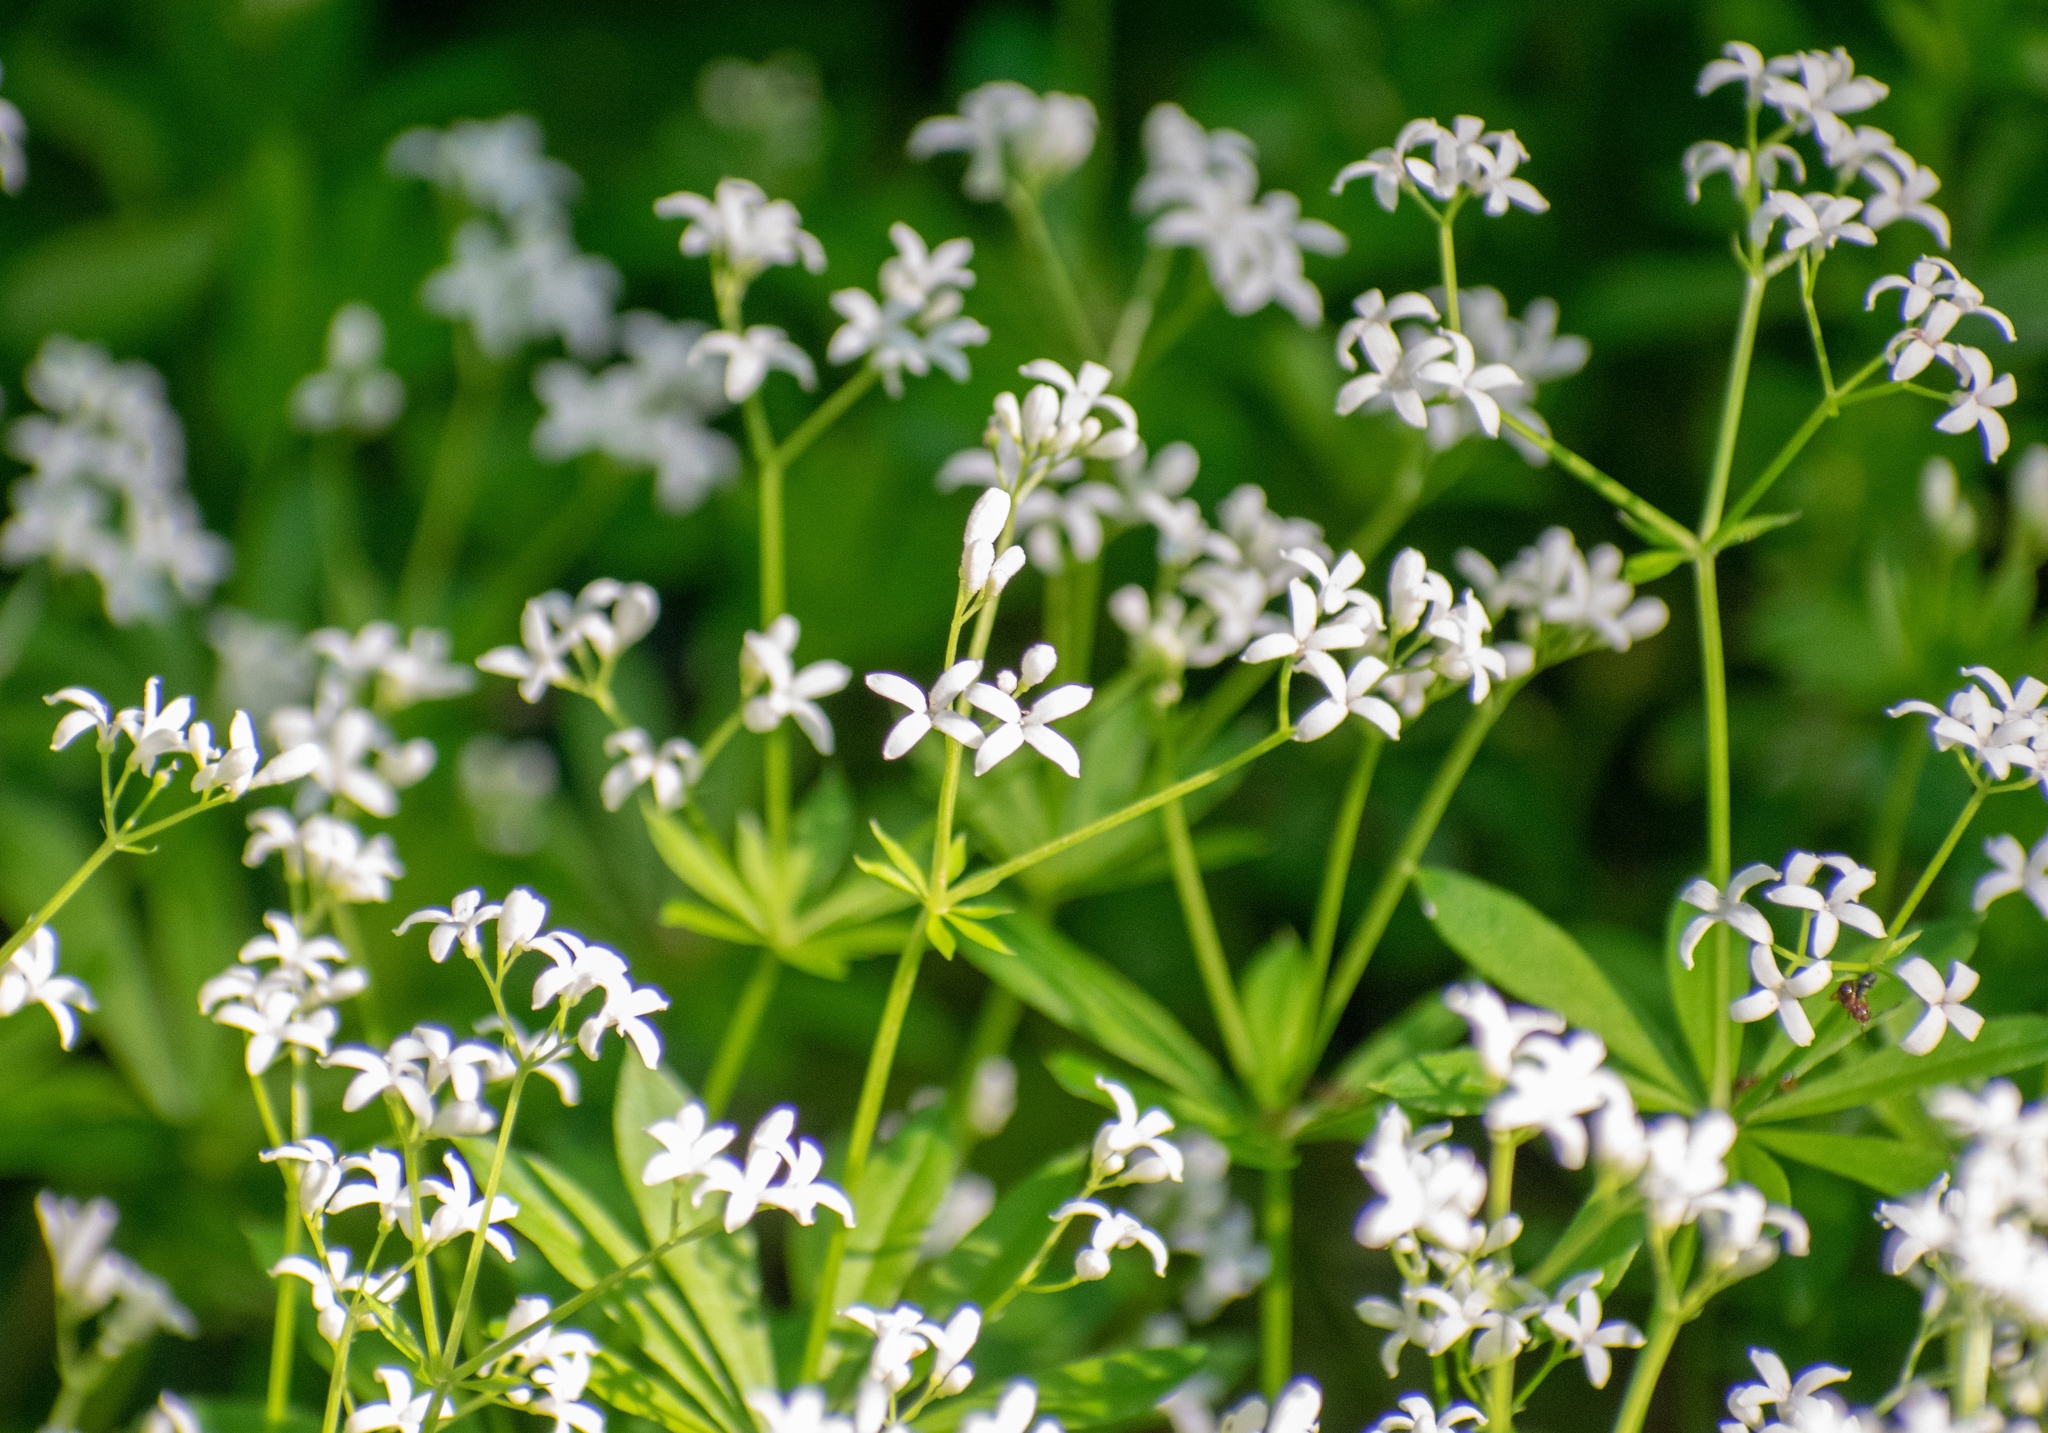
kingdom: Plantae
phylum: Tracheophyta
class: Magnoliopsida
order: Gentianales
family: Rubiaceae
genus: Galium
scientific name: Galium odoratum
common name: Sweet woodruff
